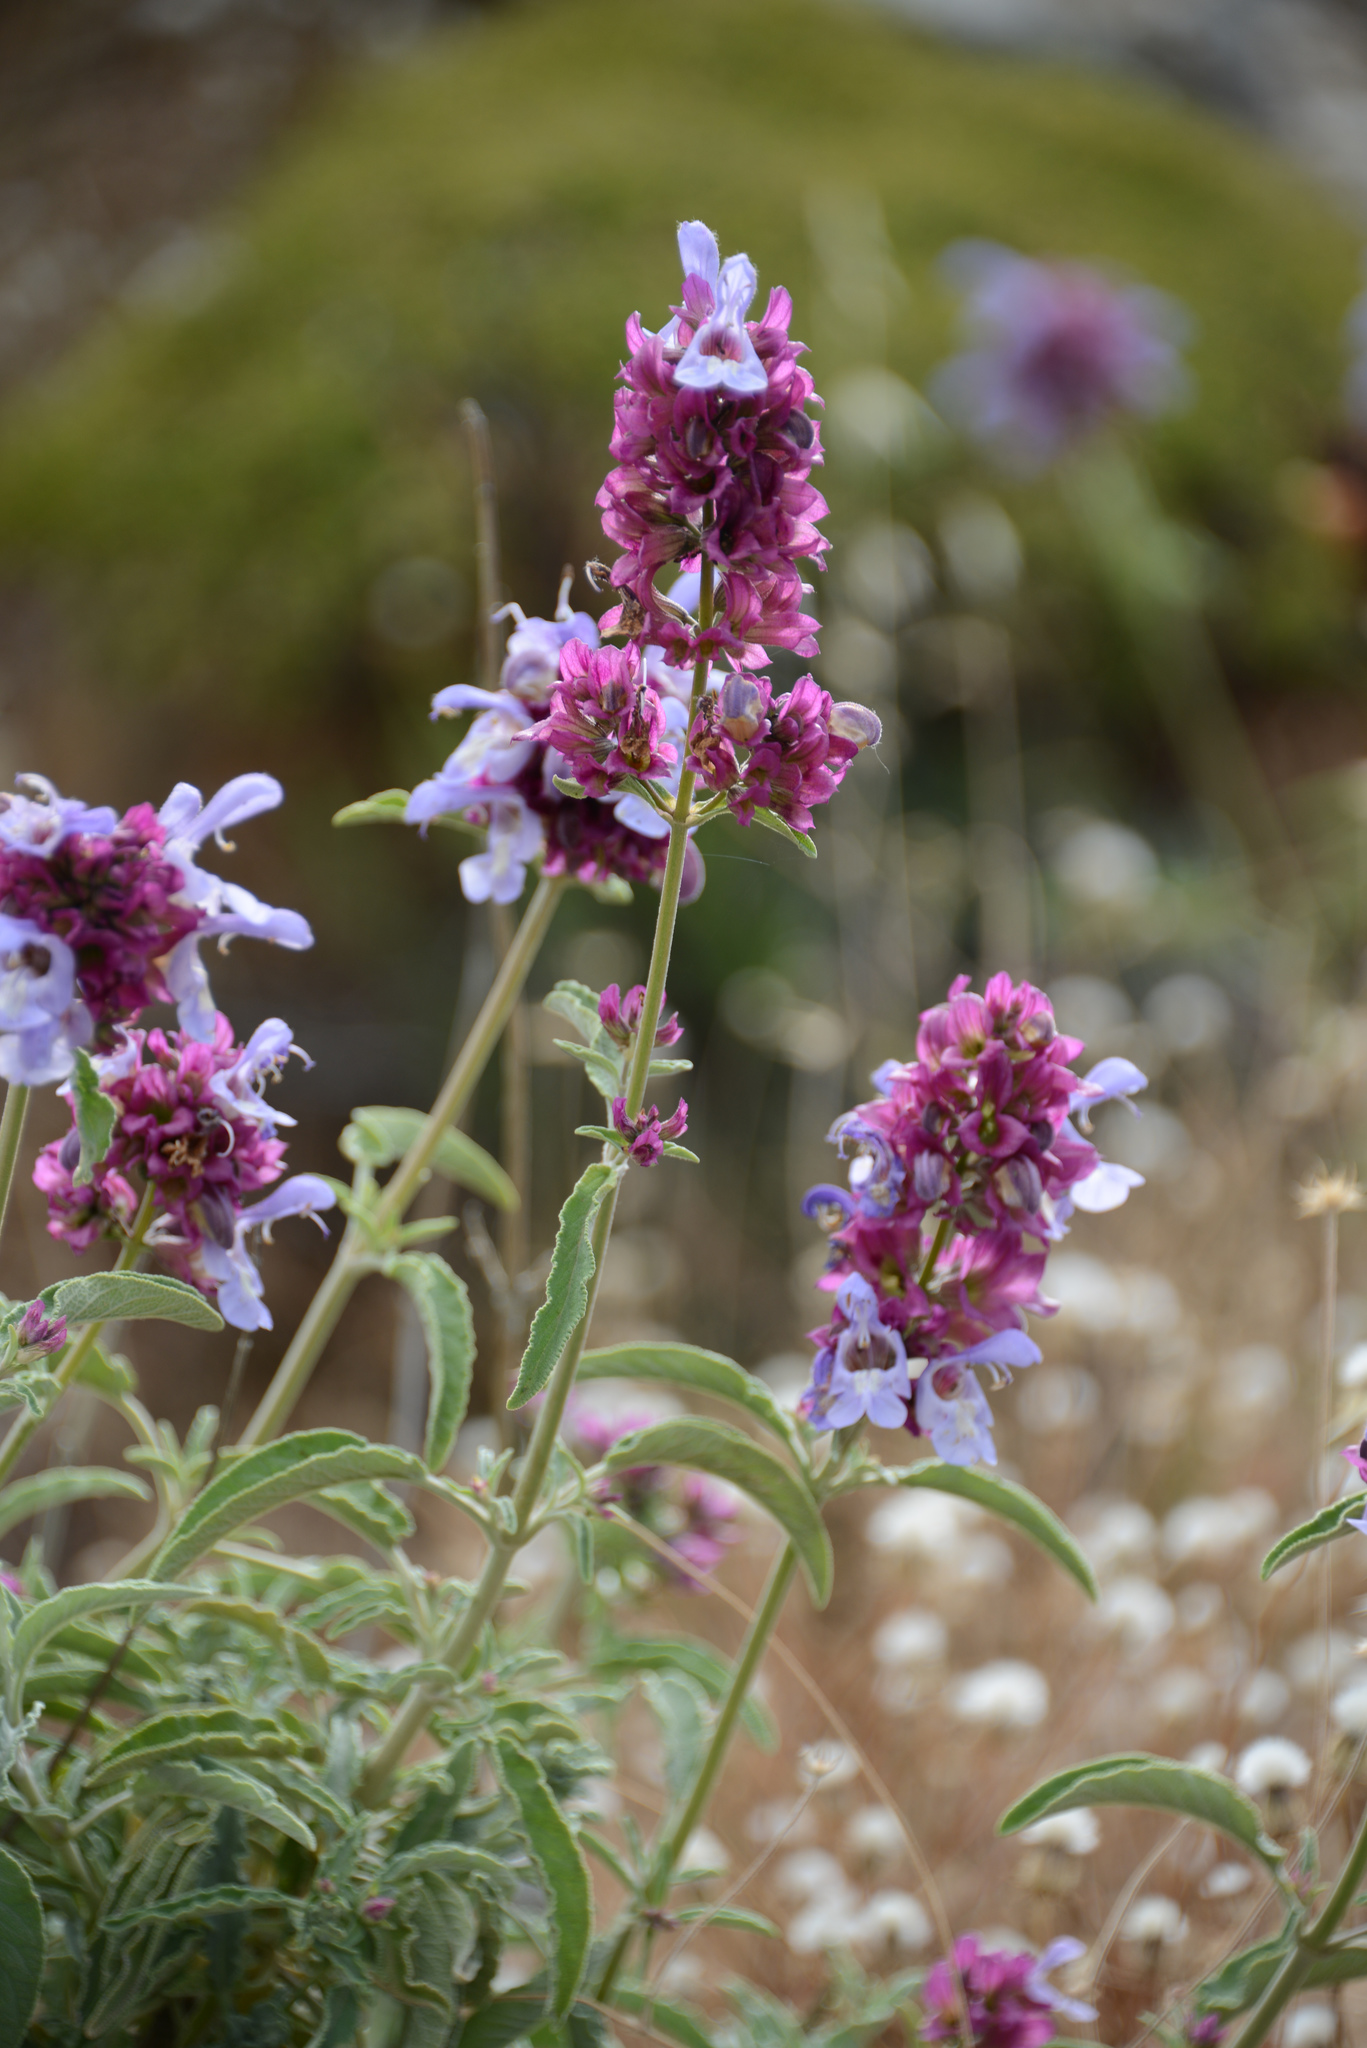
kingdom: Plantae
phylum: Tracheophyta
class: Magnoliopsida
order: Lamiales
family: Lamiaceae
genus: Salvia
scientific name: Salvia pomifera
